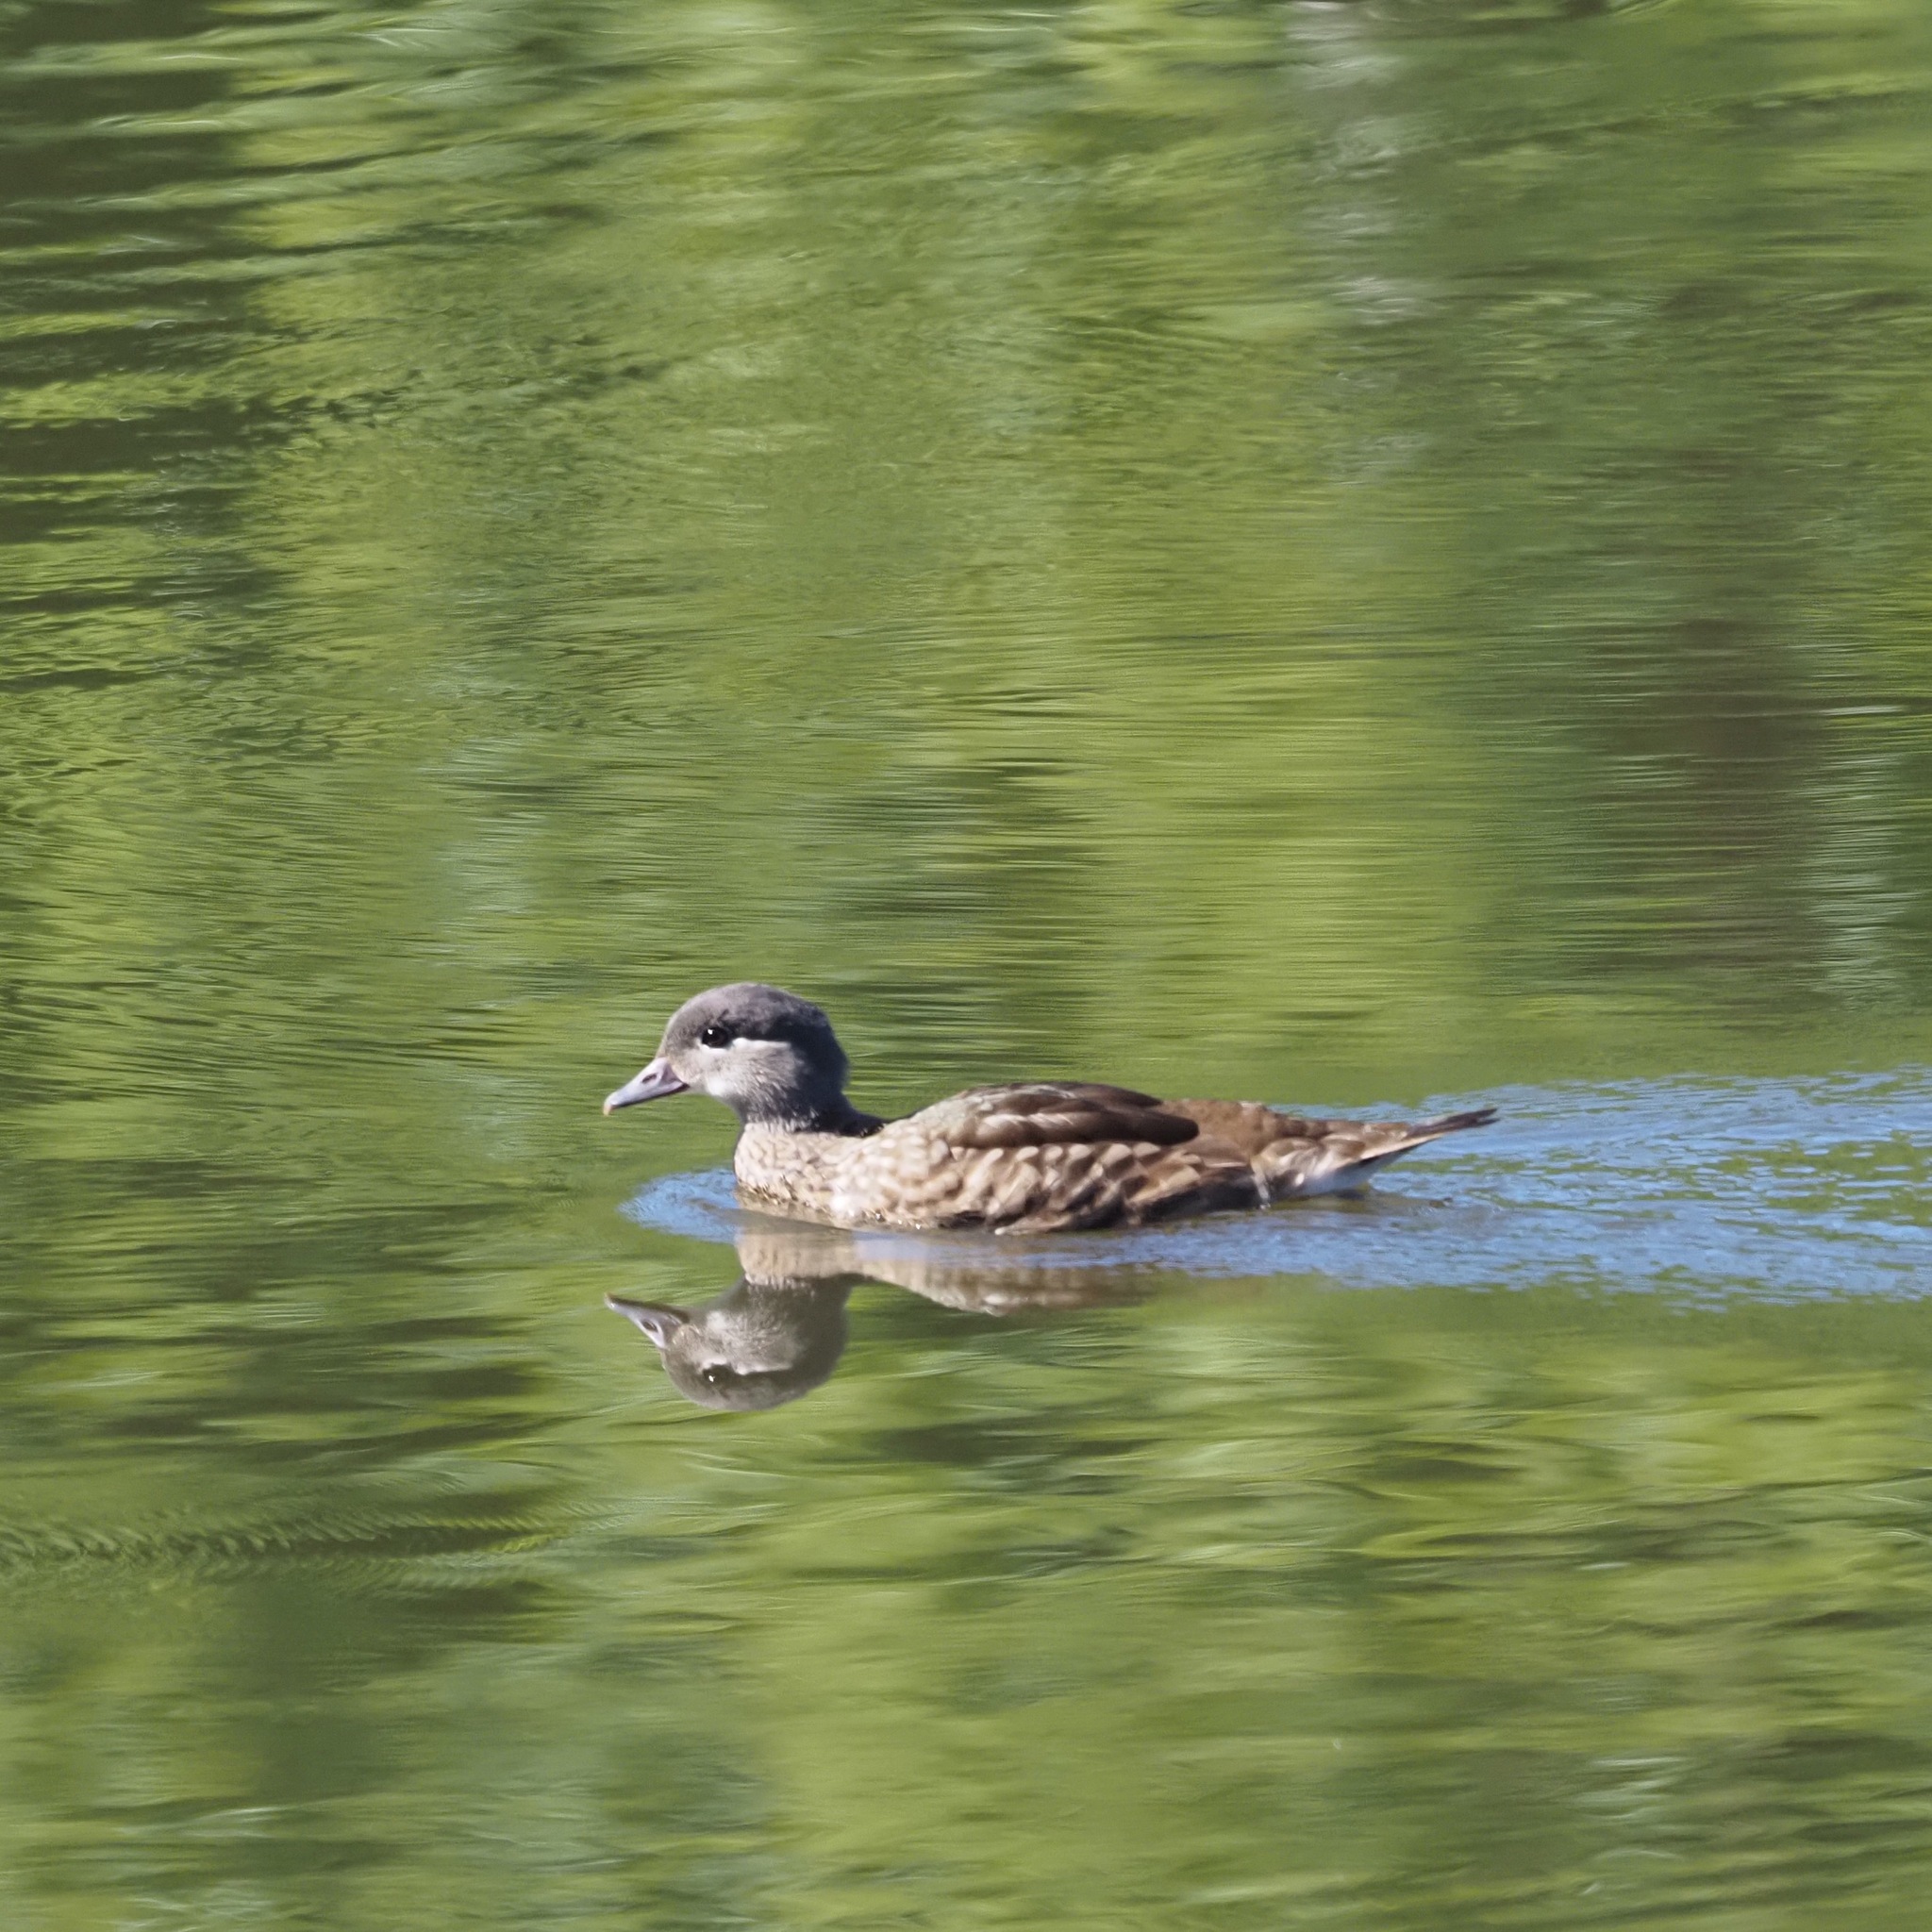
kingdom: Animalia
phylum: Chordata
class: Aves
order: Anseriformes
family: Anatidae
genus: Aix
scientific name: Aix galericulata
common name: Mandarin duck
